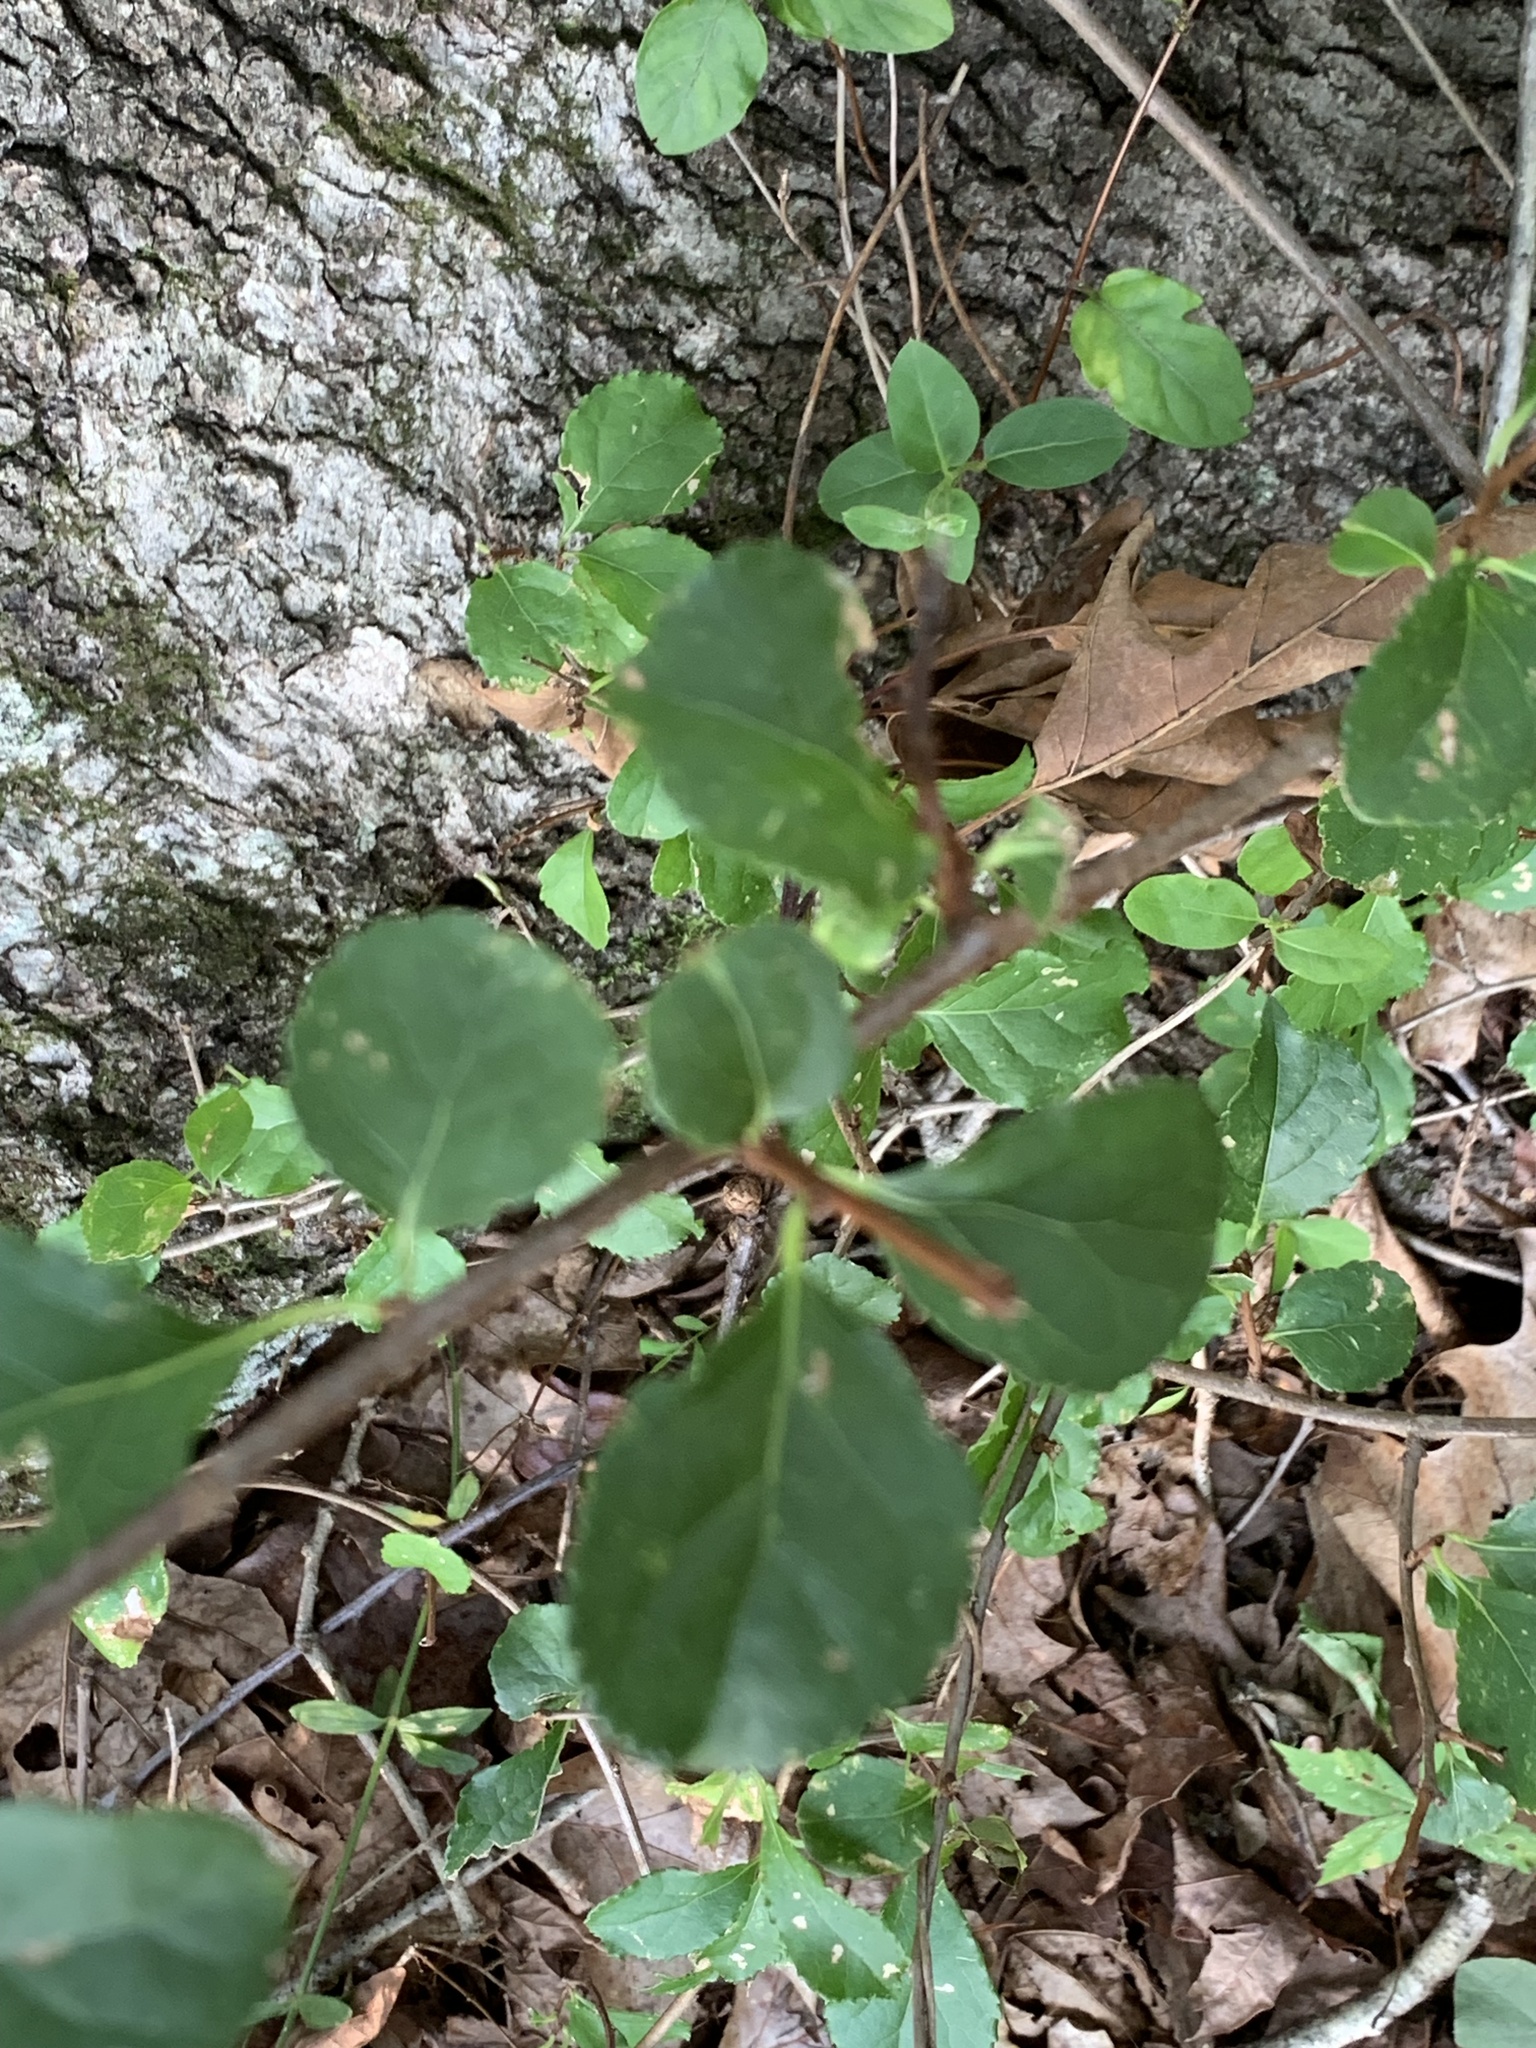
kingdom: Plantae
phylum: Tracheophyta
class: Magnoliopsida
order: Celastrales
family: Celastraceae
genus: Celastrus
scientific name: Celastrus orbiculatus
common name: Oriental bittersweet
